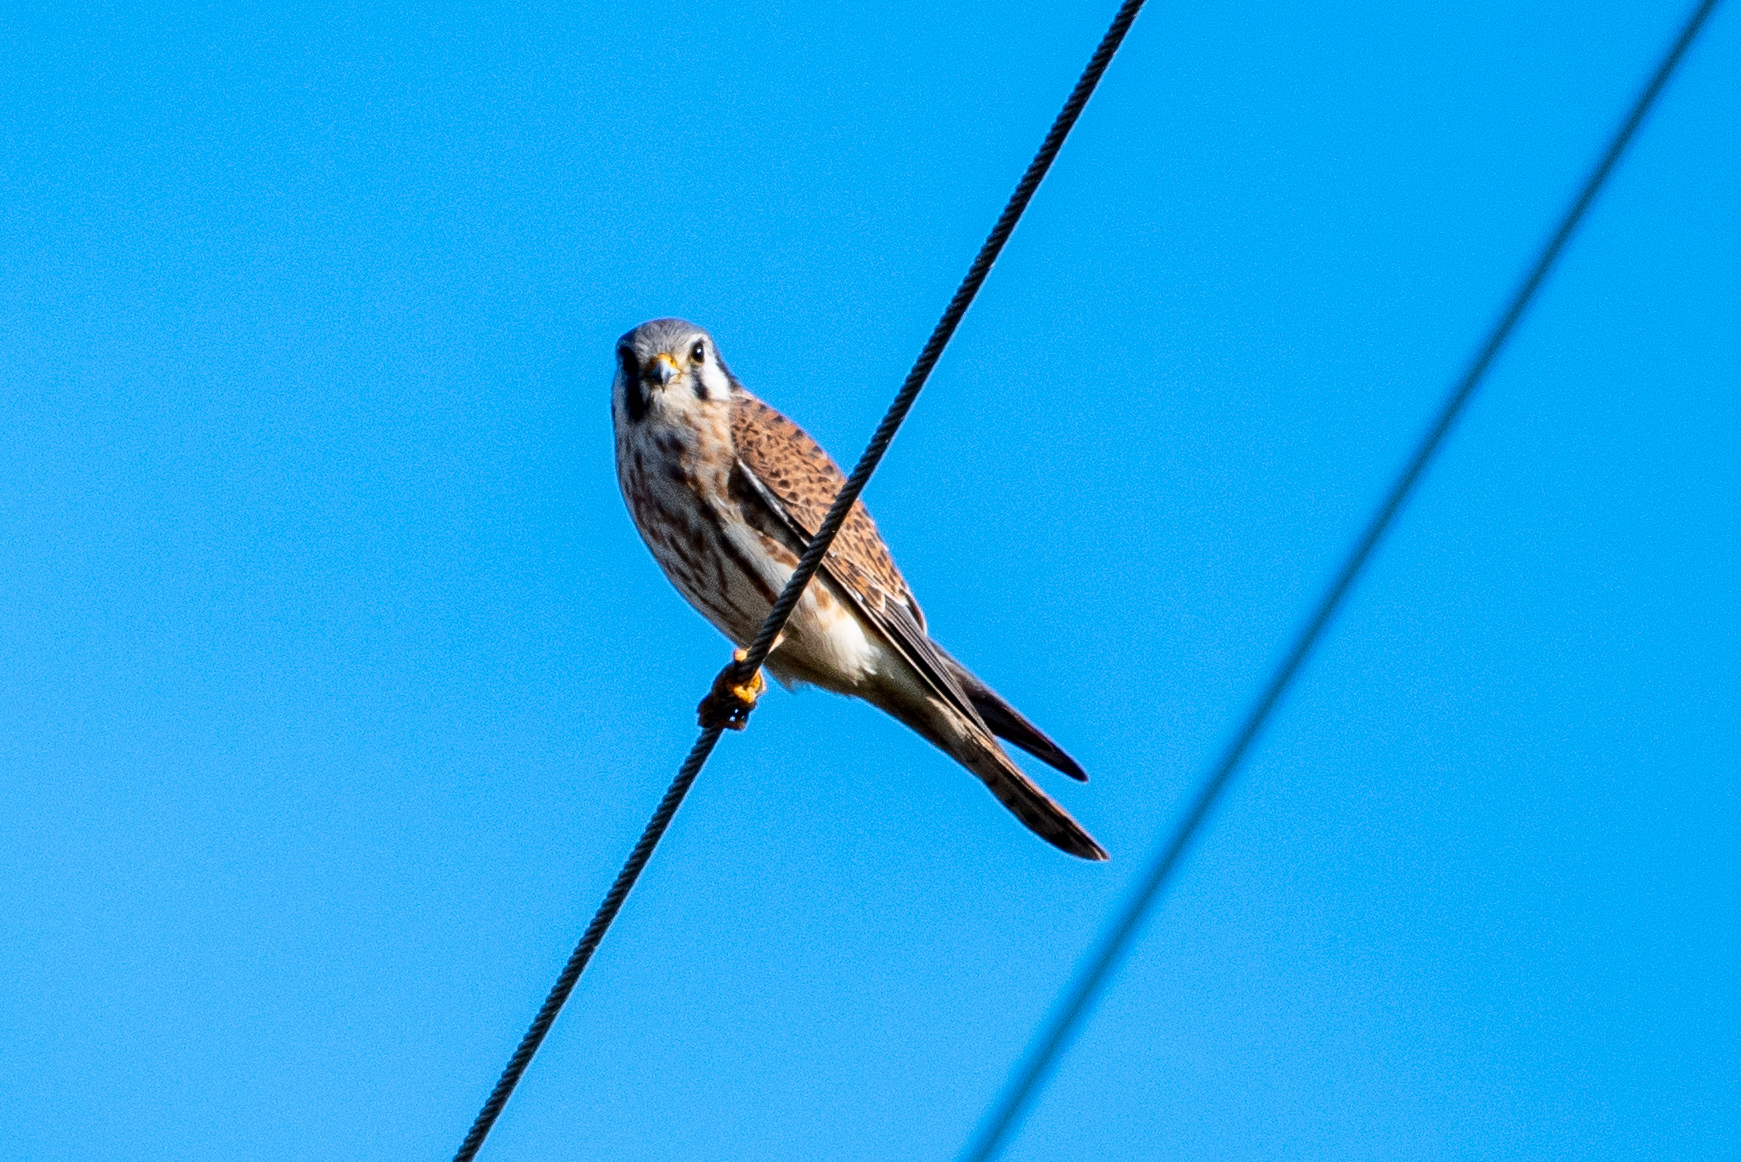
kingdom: Animalia
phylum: Chordata
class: Aves
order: Falconiformes
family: Falconidae
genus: Falco
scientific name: Falco sparverius
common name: American kestrel
